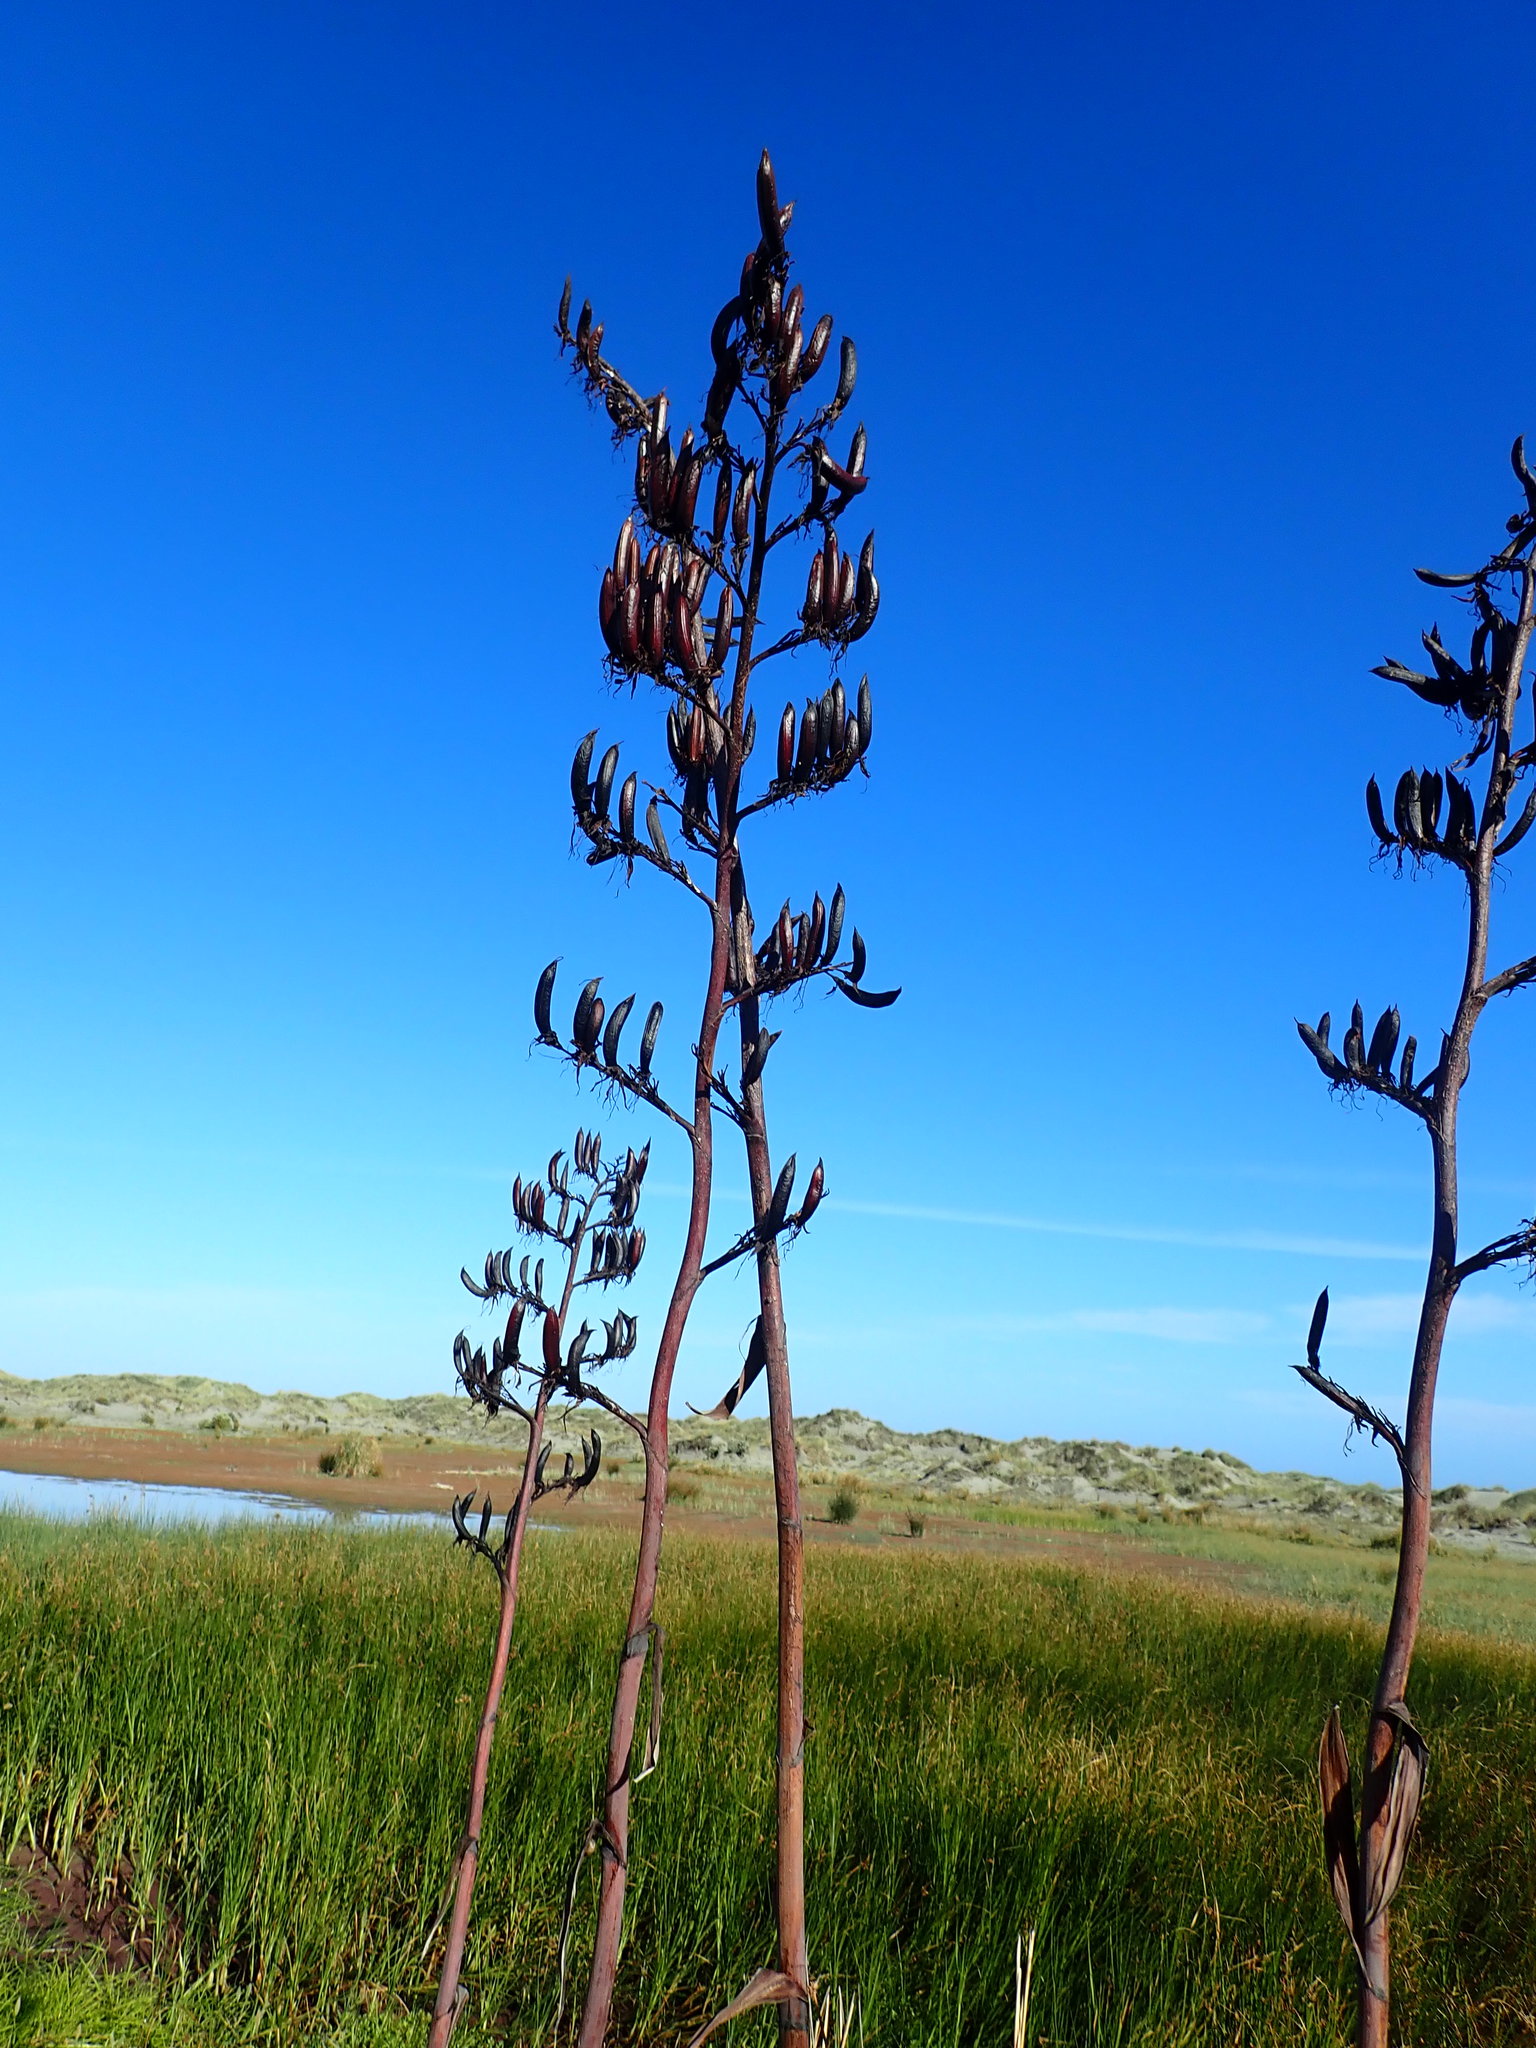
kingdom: Plantae
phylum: Tracheophyta
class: Liliopsida
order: Asparagales
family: Asphodelaceae
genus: Phormium
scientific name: Phormium tenax
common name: New zealand flax
